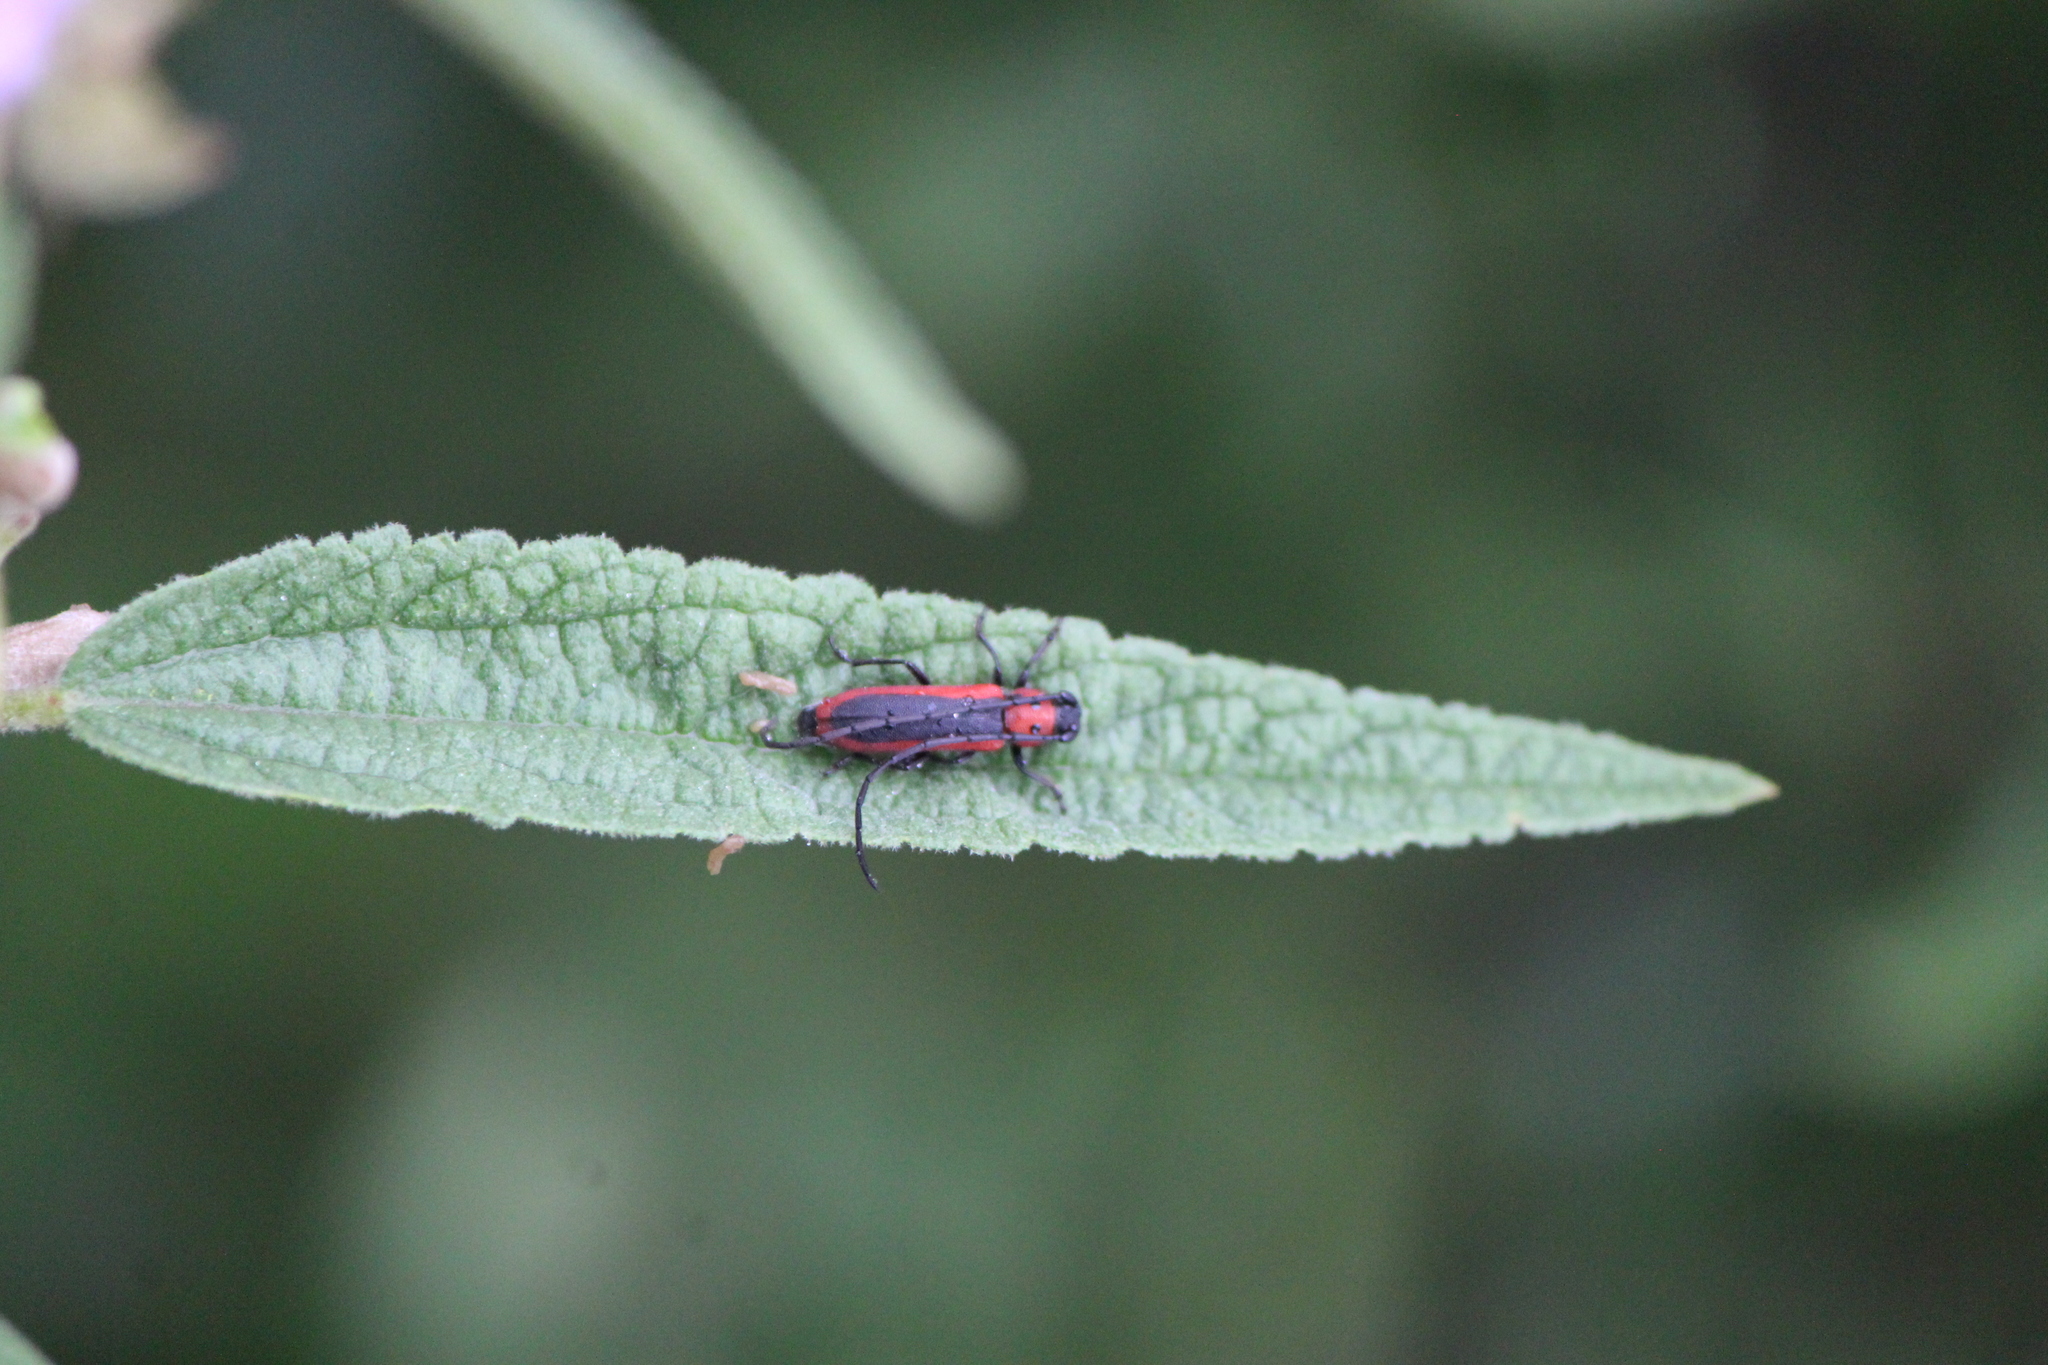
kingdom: Animalia
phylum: Arthropoda
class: Insecta
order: Coleoptera
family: Cerambycidae
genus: Tylosis
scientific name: Tylosis suturalis
